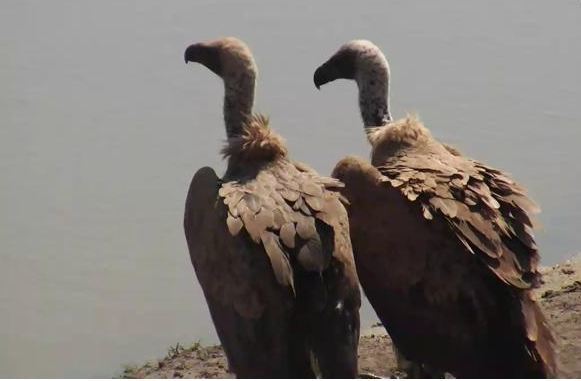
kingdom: Animalia
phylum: Chordata
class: Aves
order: Accipitriformes
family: Accipitridae
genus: Gyps
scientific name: Gyps africanus
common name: White-backed vulture
